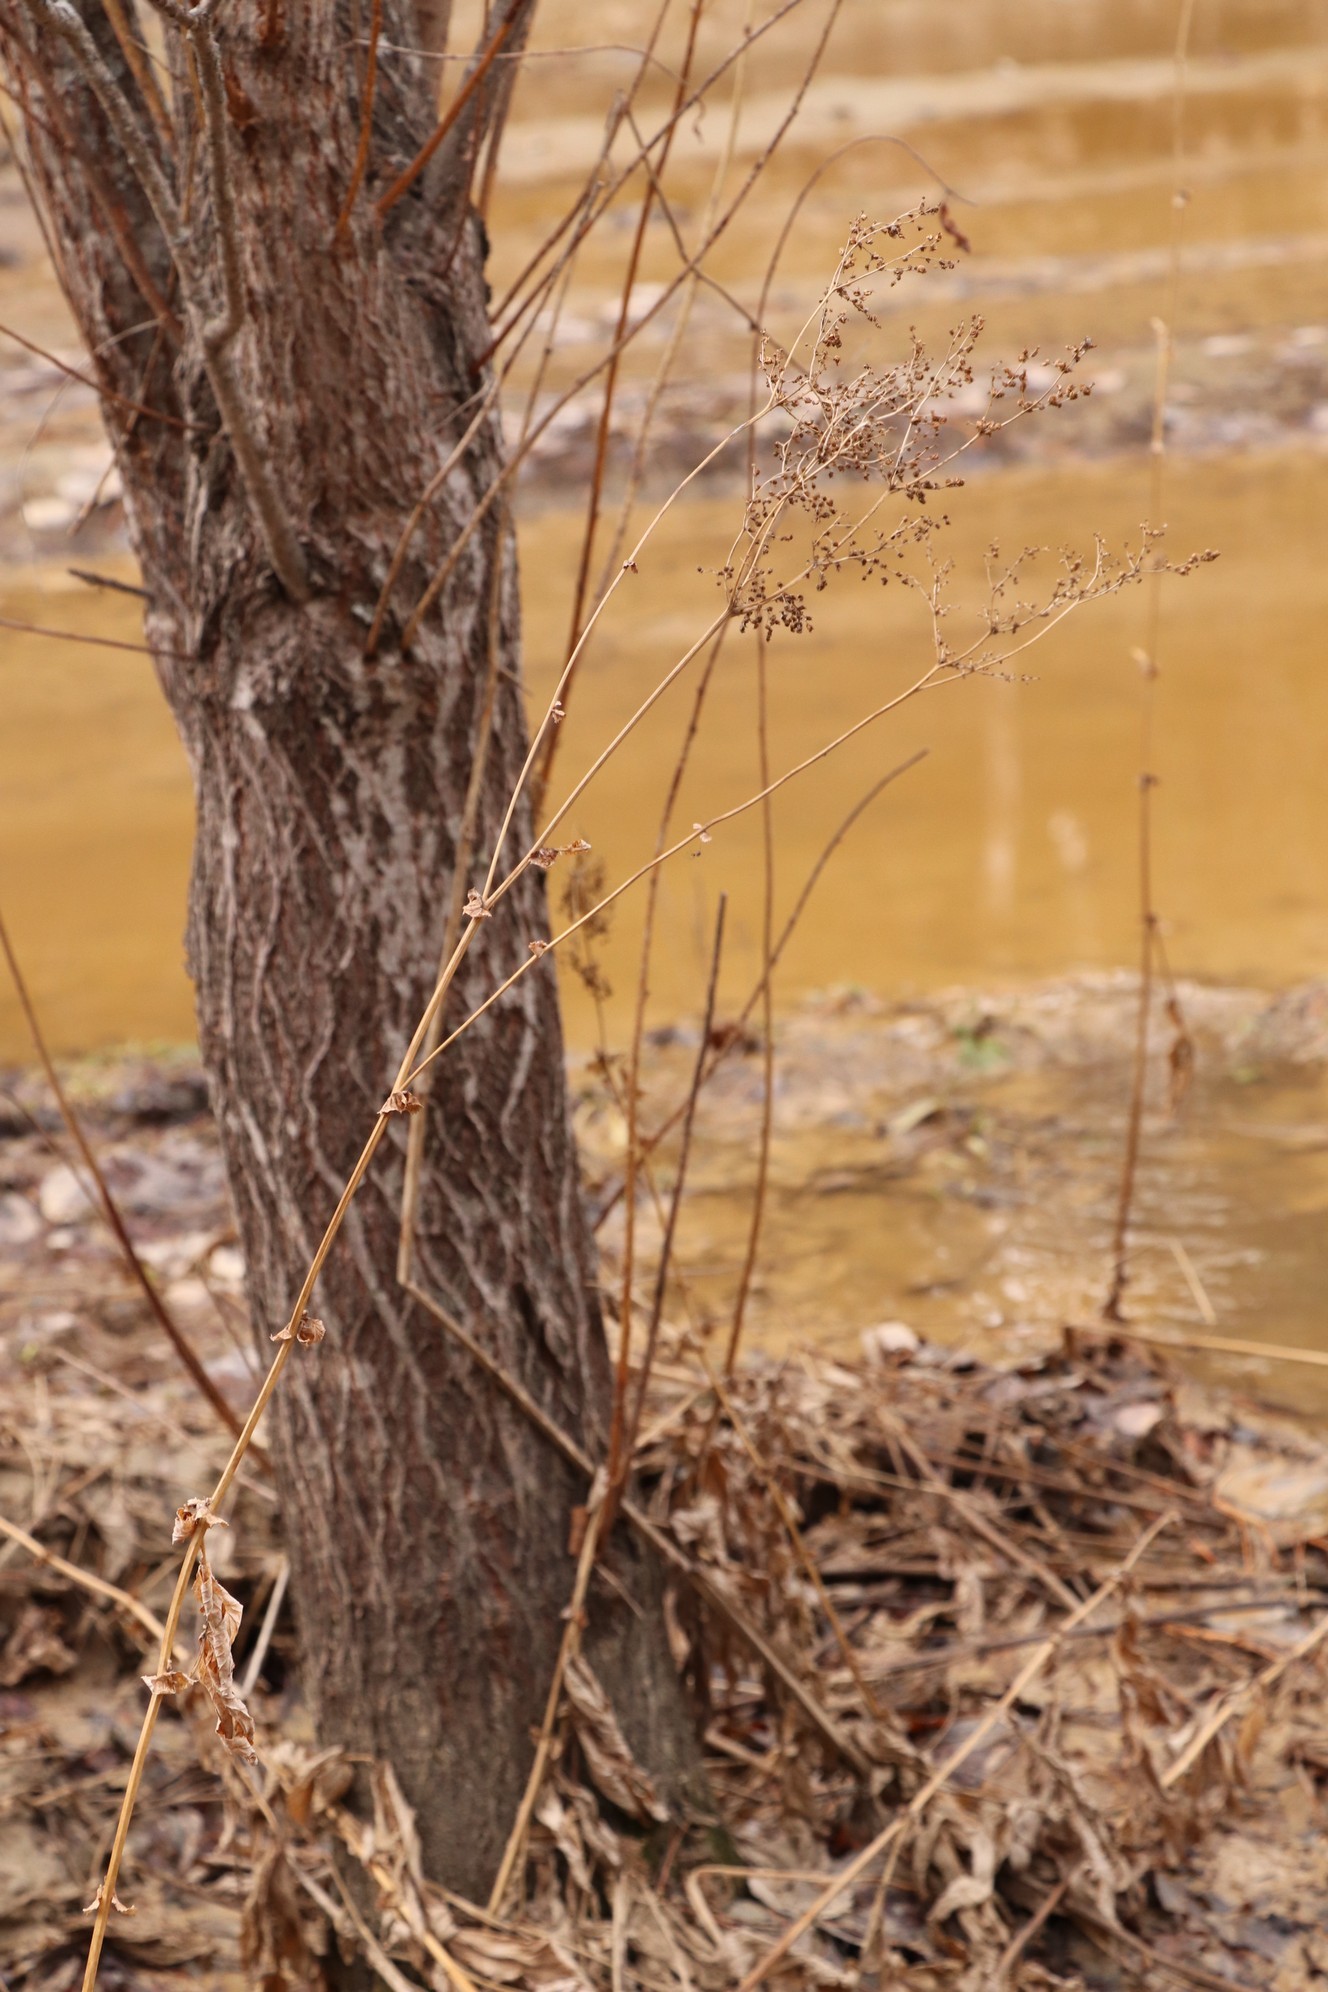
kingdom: Plantae
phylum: Tracheophyta
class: Magnoliopsida
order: Rosales
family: Rosaceae
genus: Filipendula
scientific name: Filipendula ulmaria
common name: Meadowsweet
